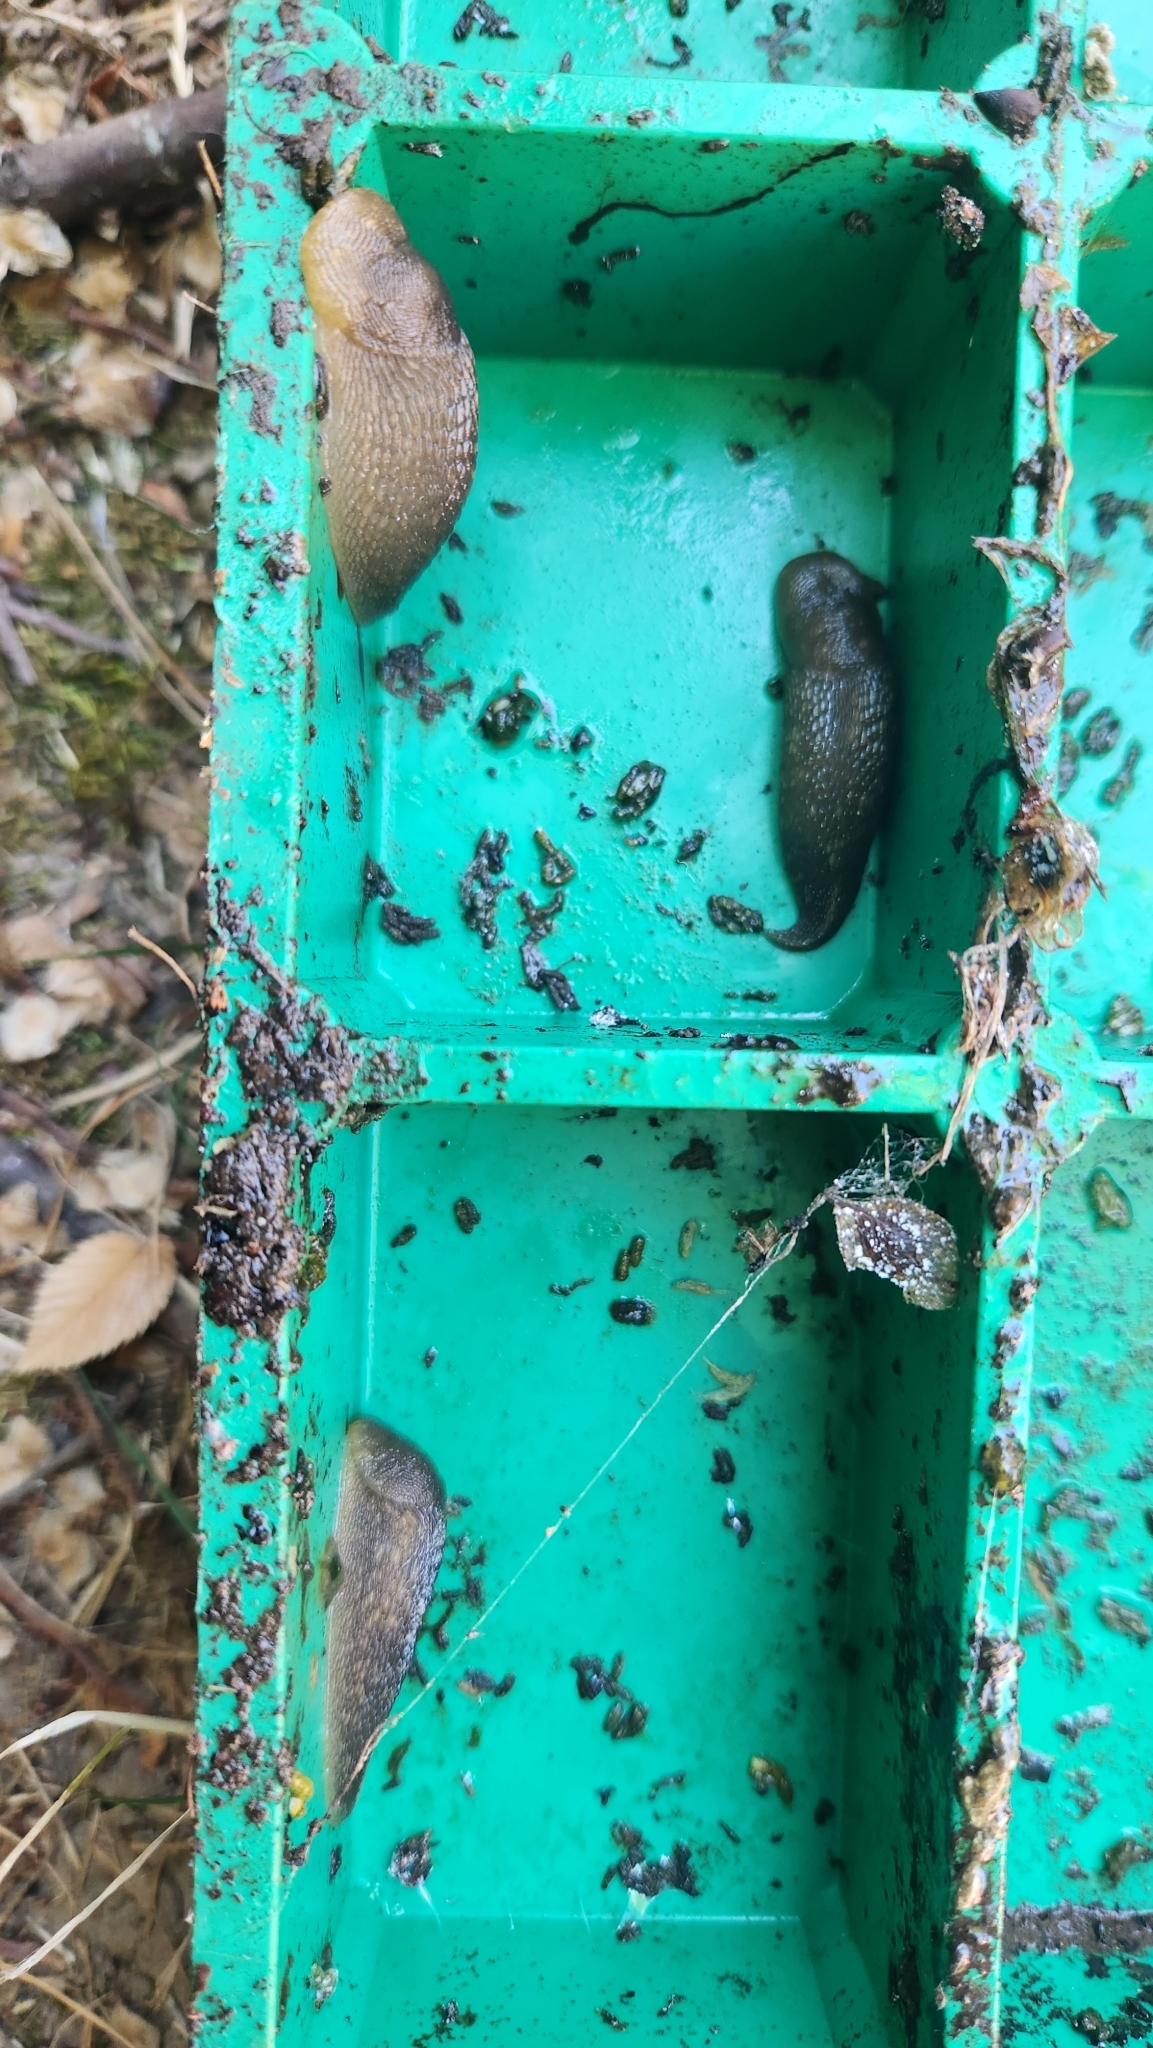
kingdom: Animalia
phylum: Mollusca
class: Gastropoda
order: Stylommatophora
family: Limacidae
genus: Limacus
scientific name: Limacus flavus
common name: Yellow gardenslug
